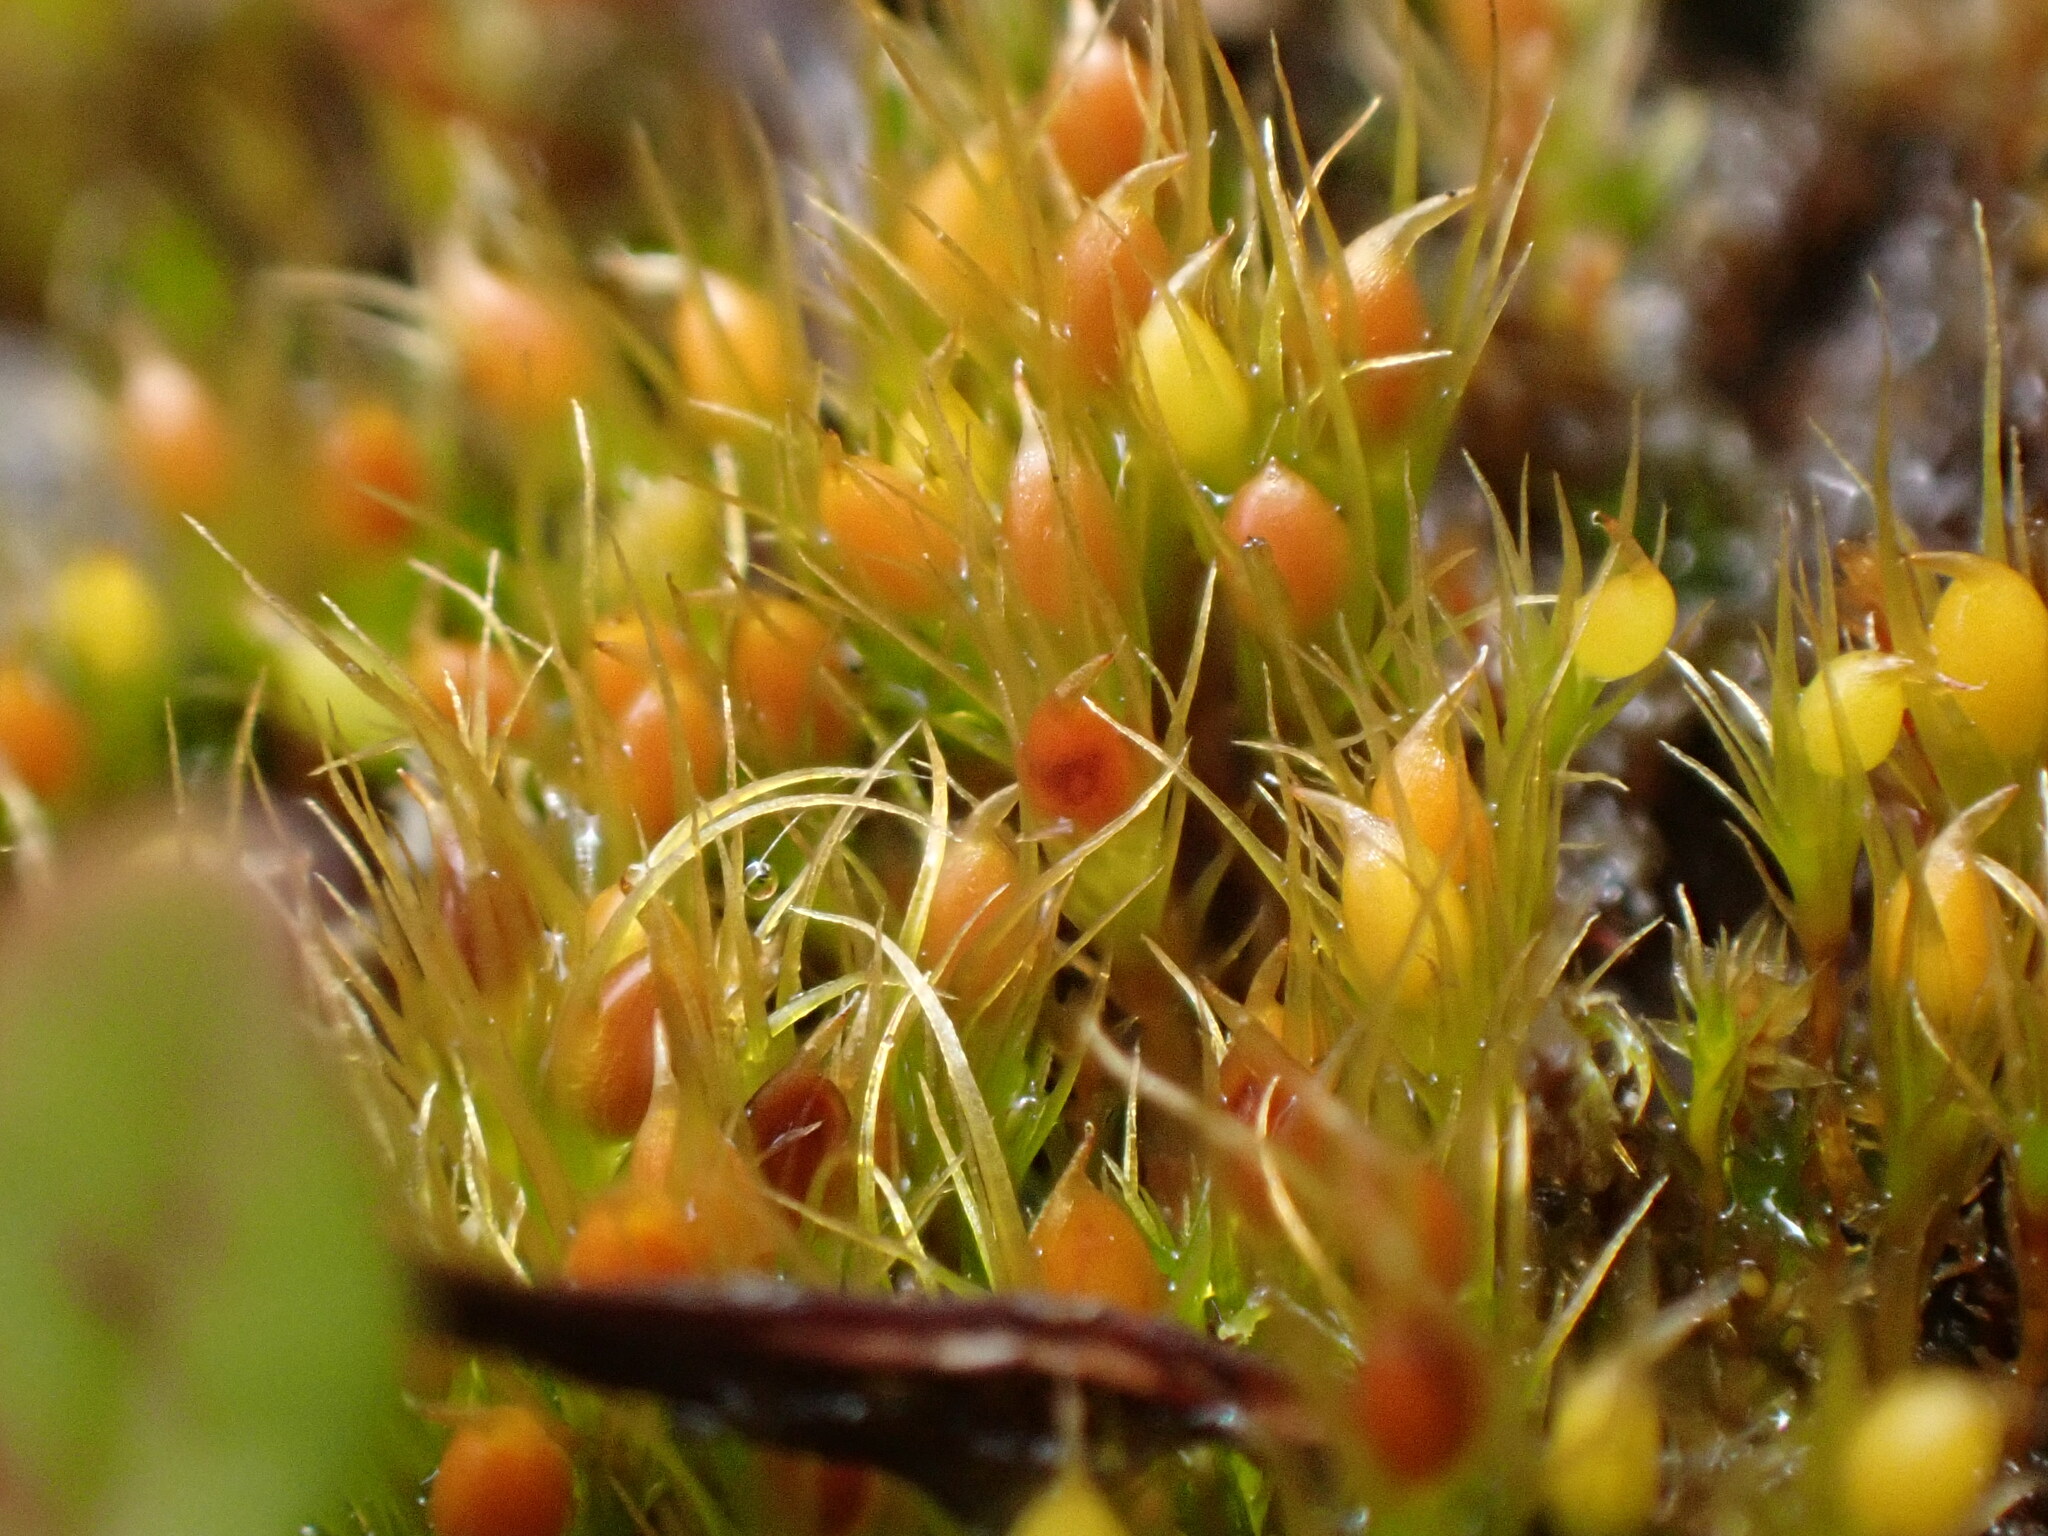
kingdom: Plantae
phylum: Bryophyta
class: Bryopsida
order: Dicranales
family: Ditrichaceae
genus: Pleuridium
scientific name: Pleuridium acuminatum
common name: Taper-leaved earth-moss
